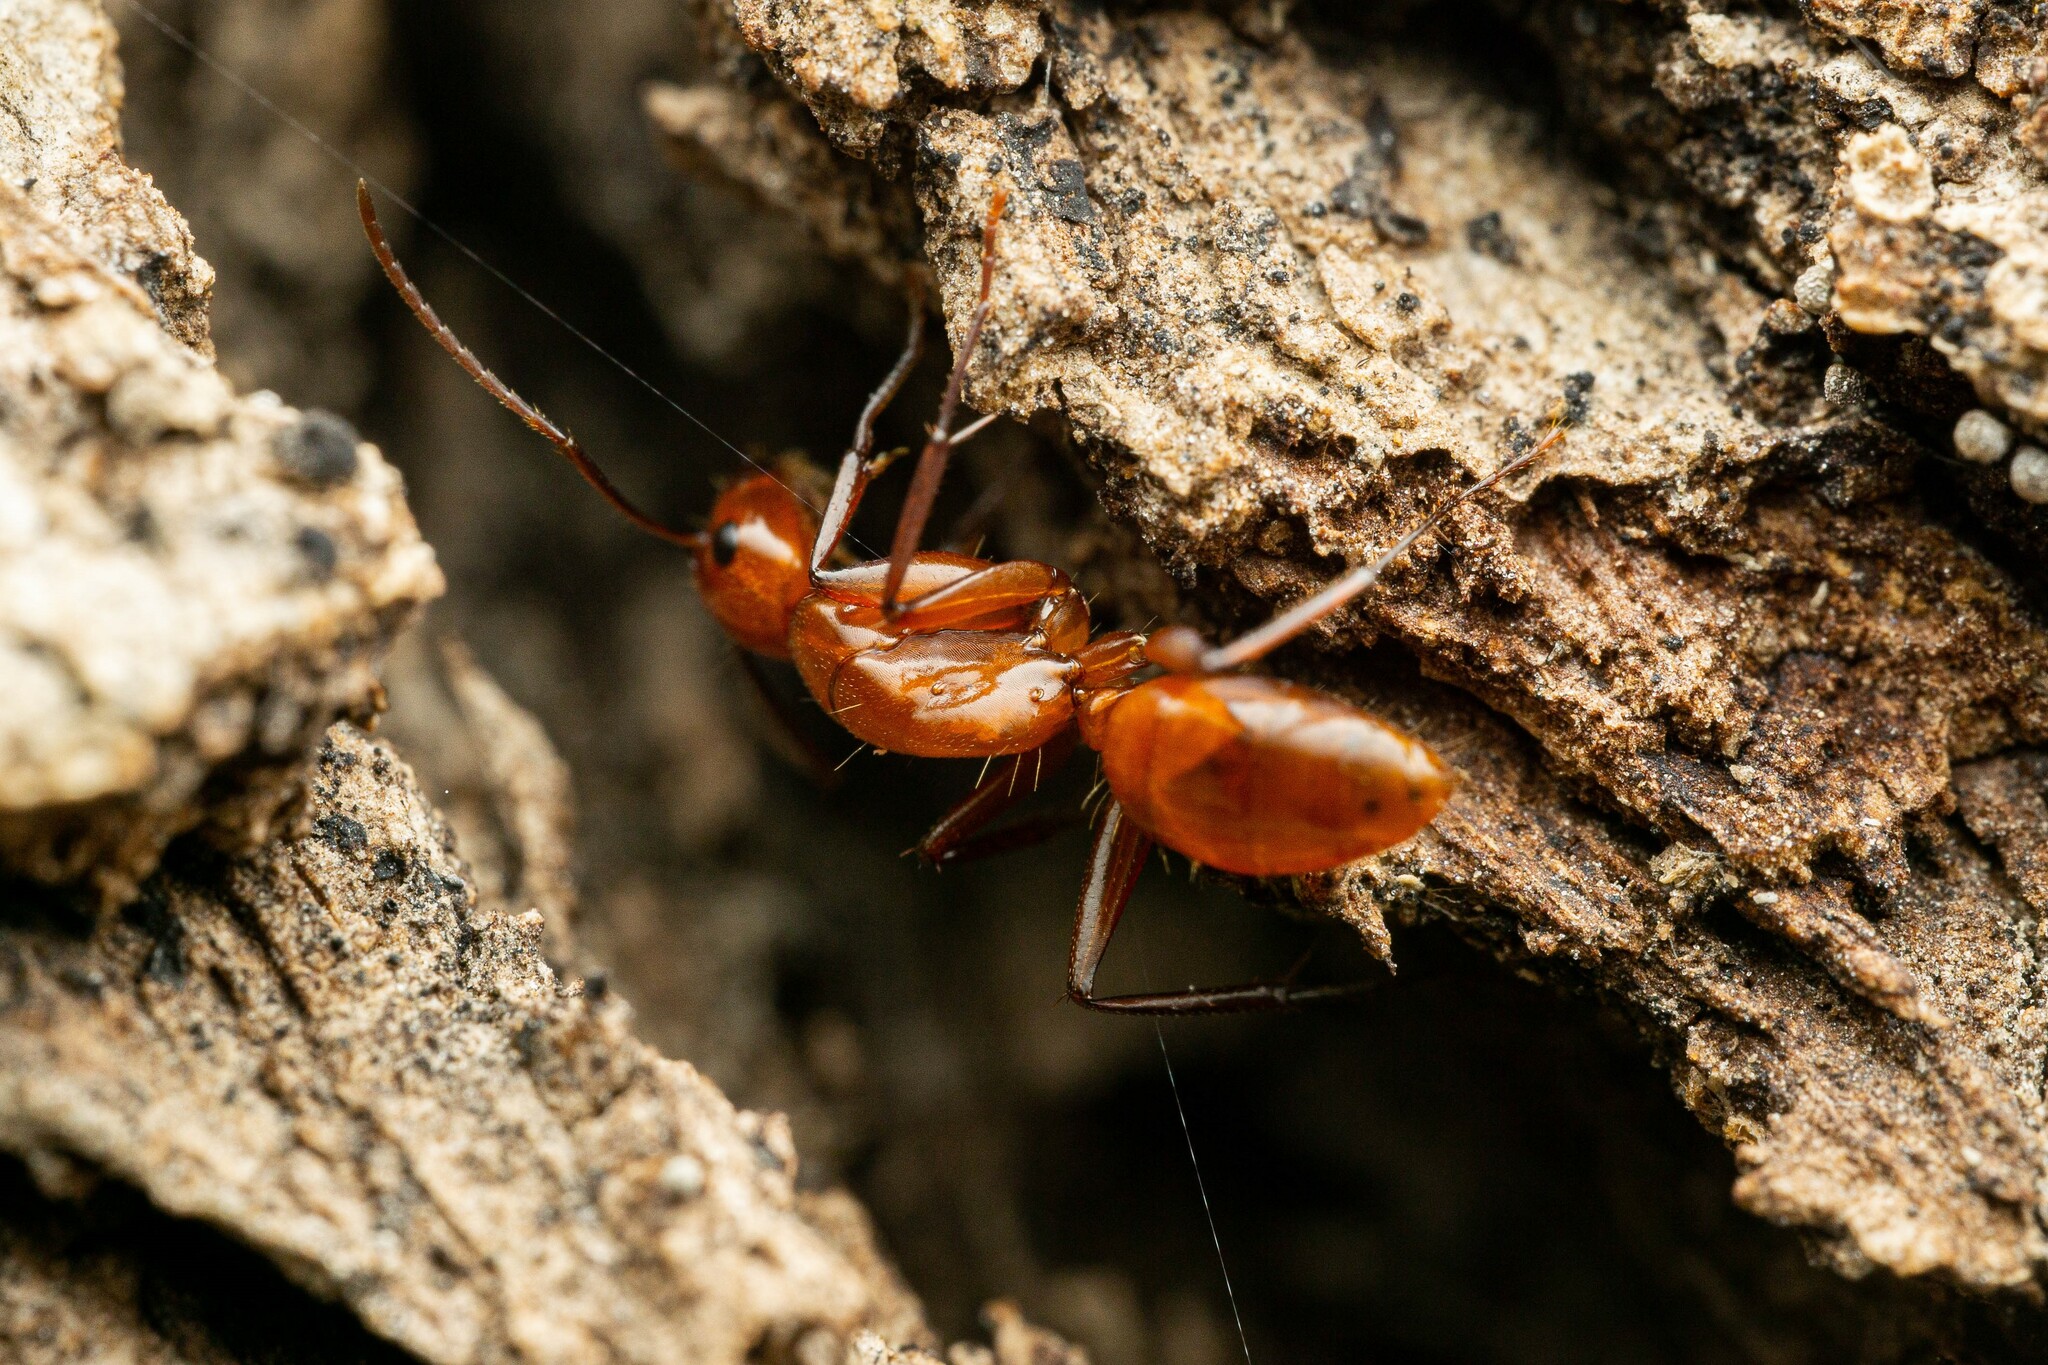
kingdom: Animalia
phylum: Arthropoda
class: Insecta
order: Hymenoptera
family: Formicidae
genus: Camponotus
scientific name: Camponotus schaefferi
